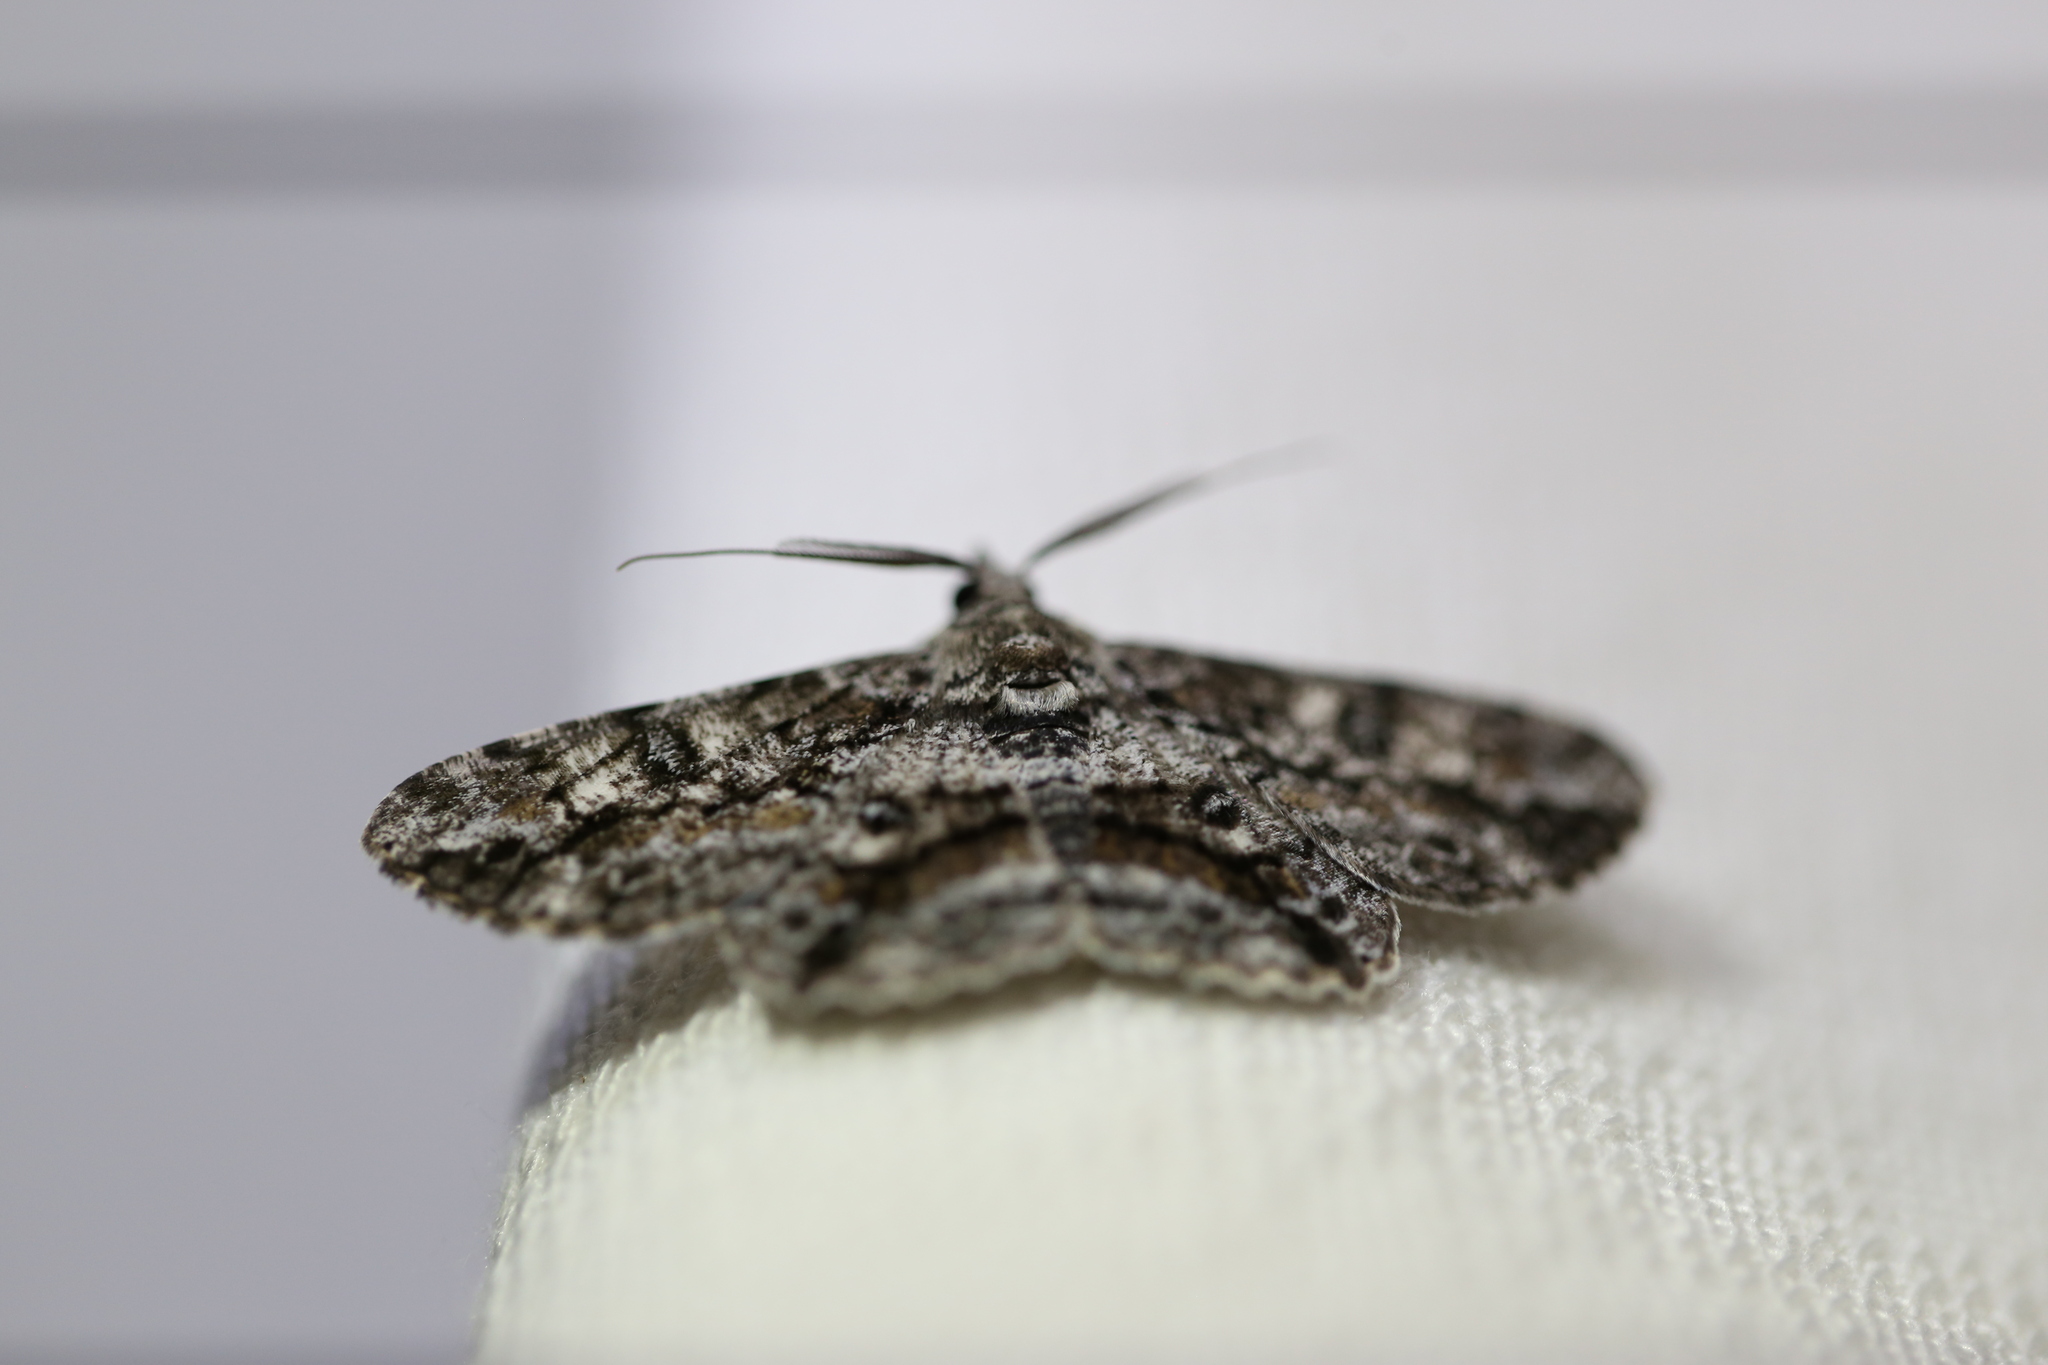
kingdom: Animalia
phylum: Arthropoda
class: Insecta
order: Lepidoptera
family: Geometridae
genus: Cleora
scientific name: Cleora injectaria
